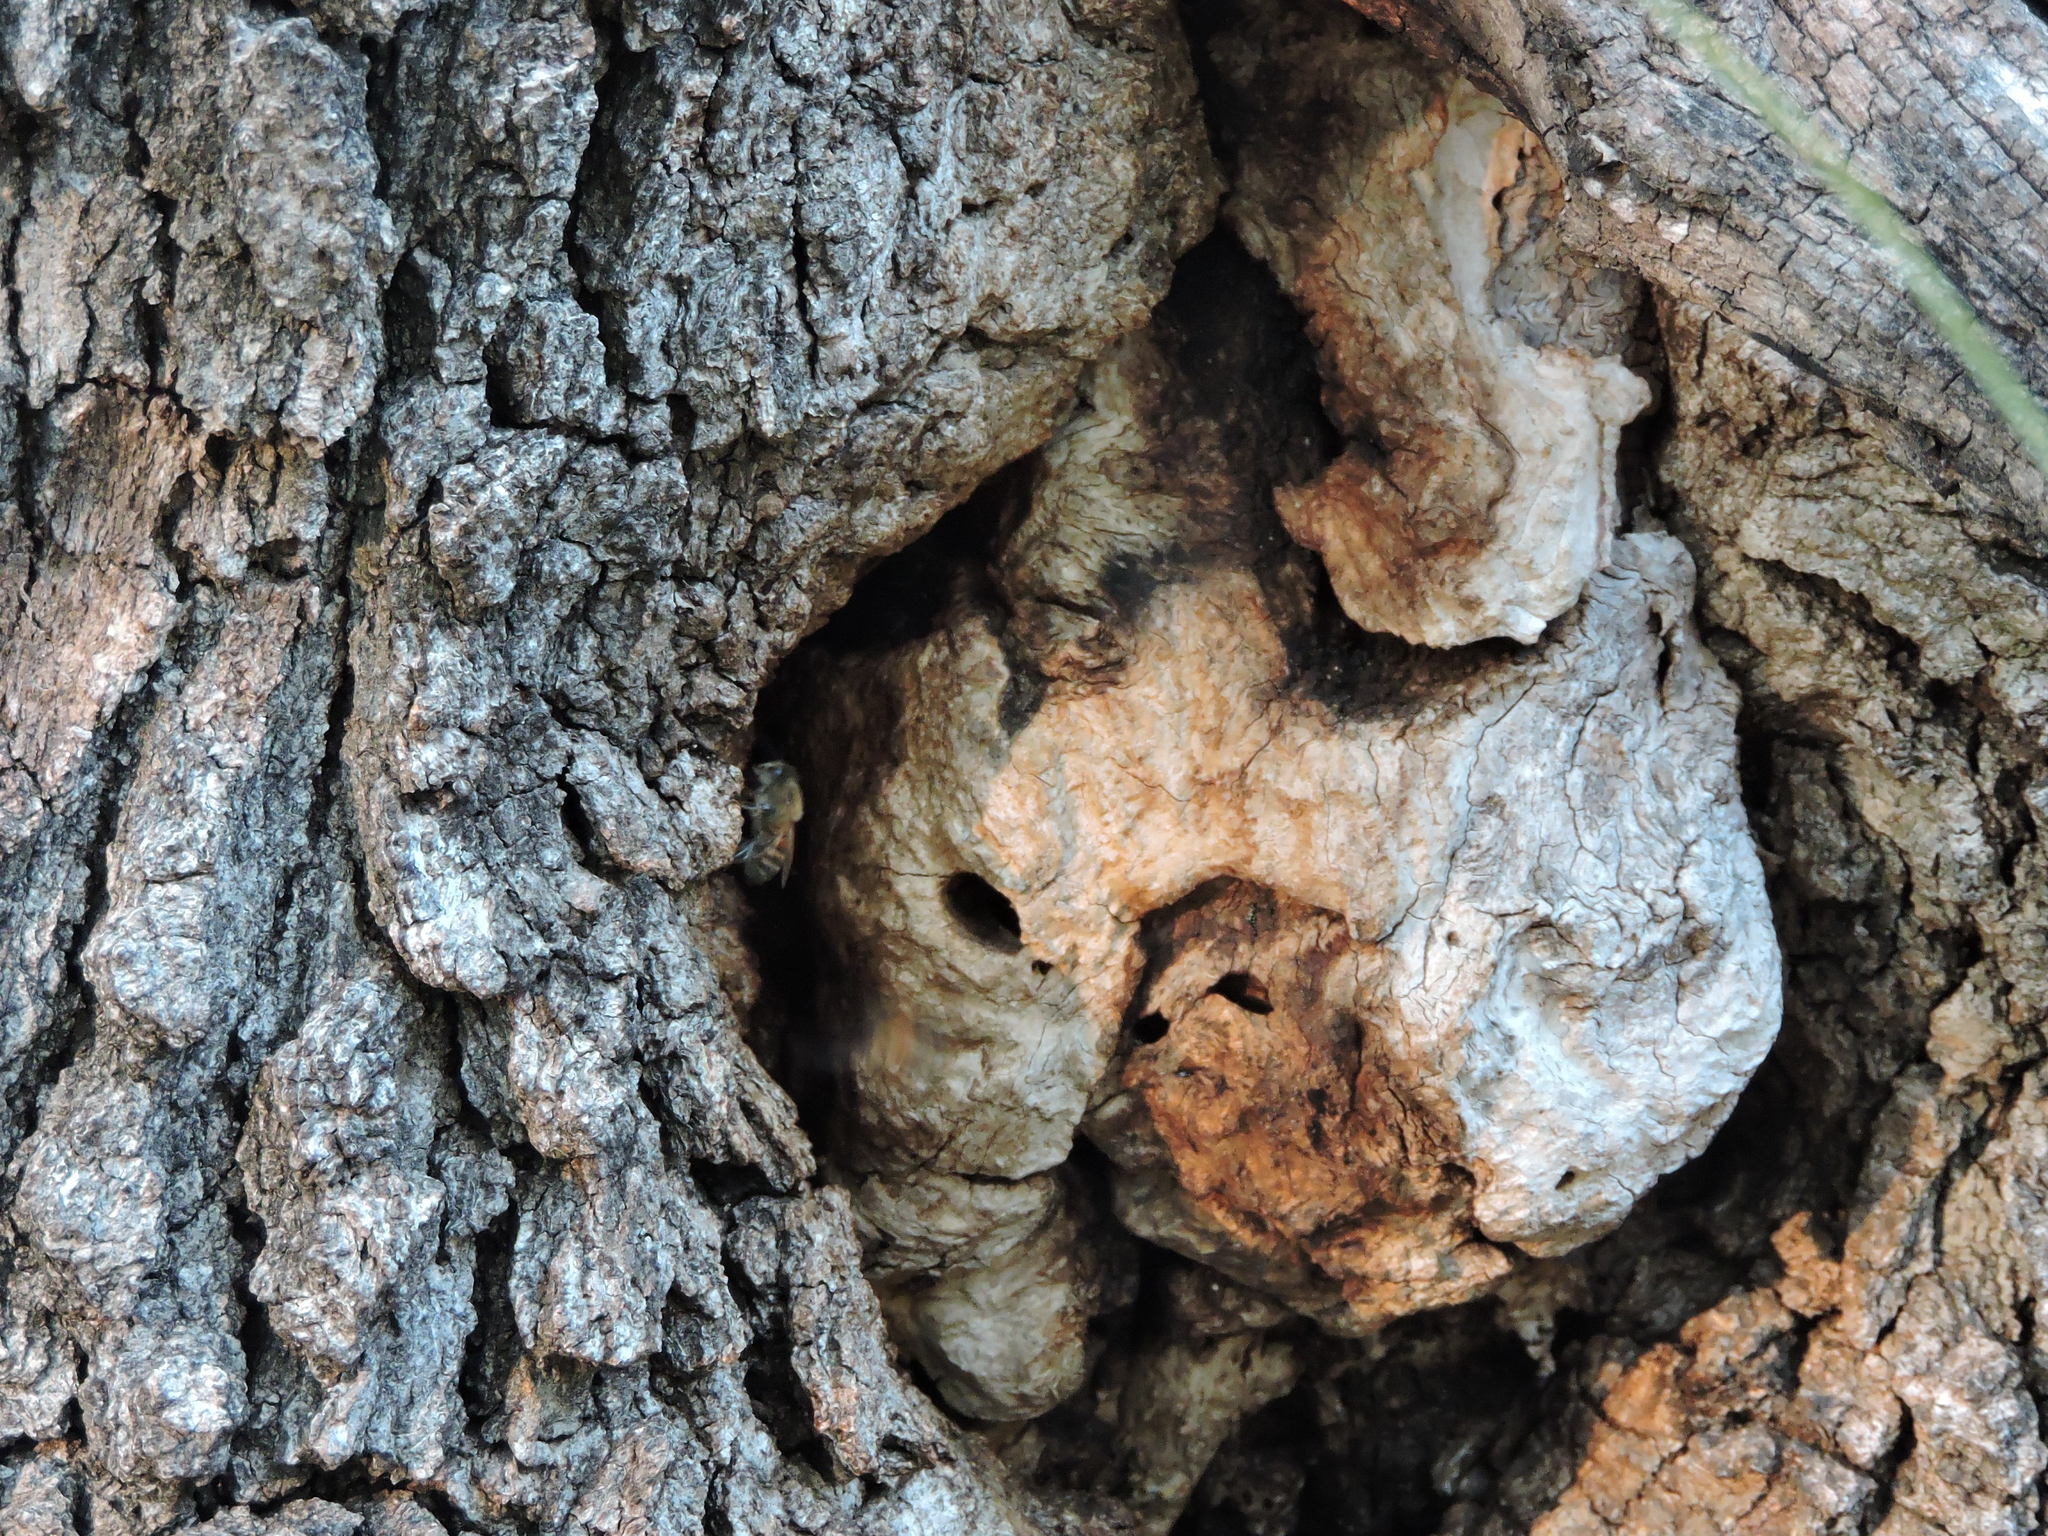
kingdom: Animalia
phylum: Arthropoda
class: Insecta
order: Hymenoptera
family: Apidae
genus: Apis
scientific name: Apis mellifera
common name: Honey bee
